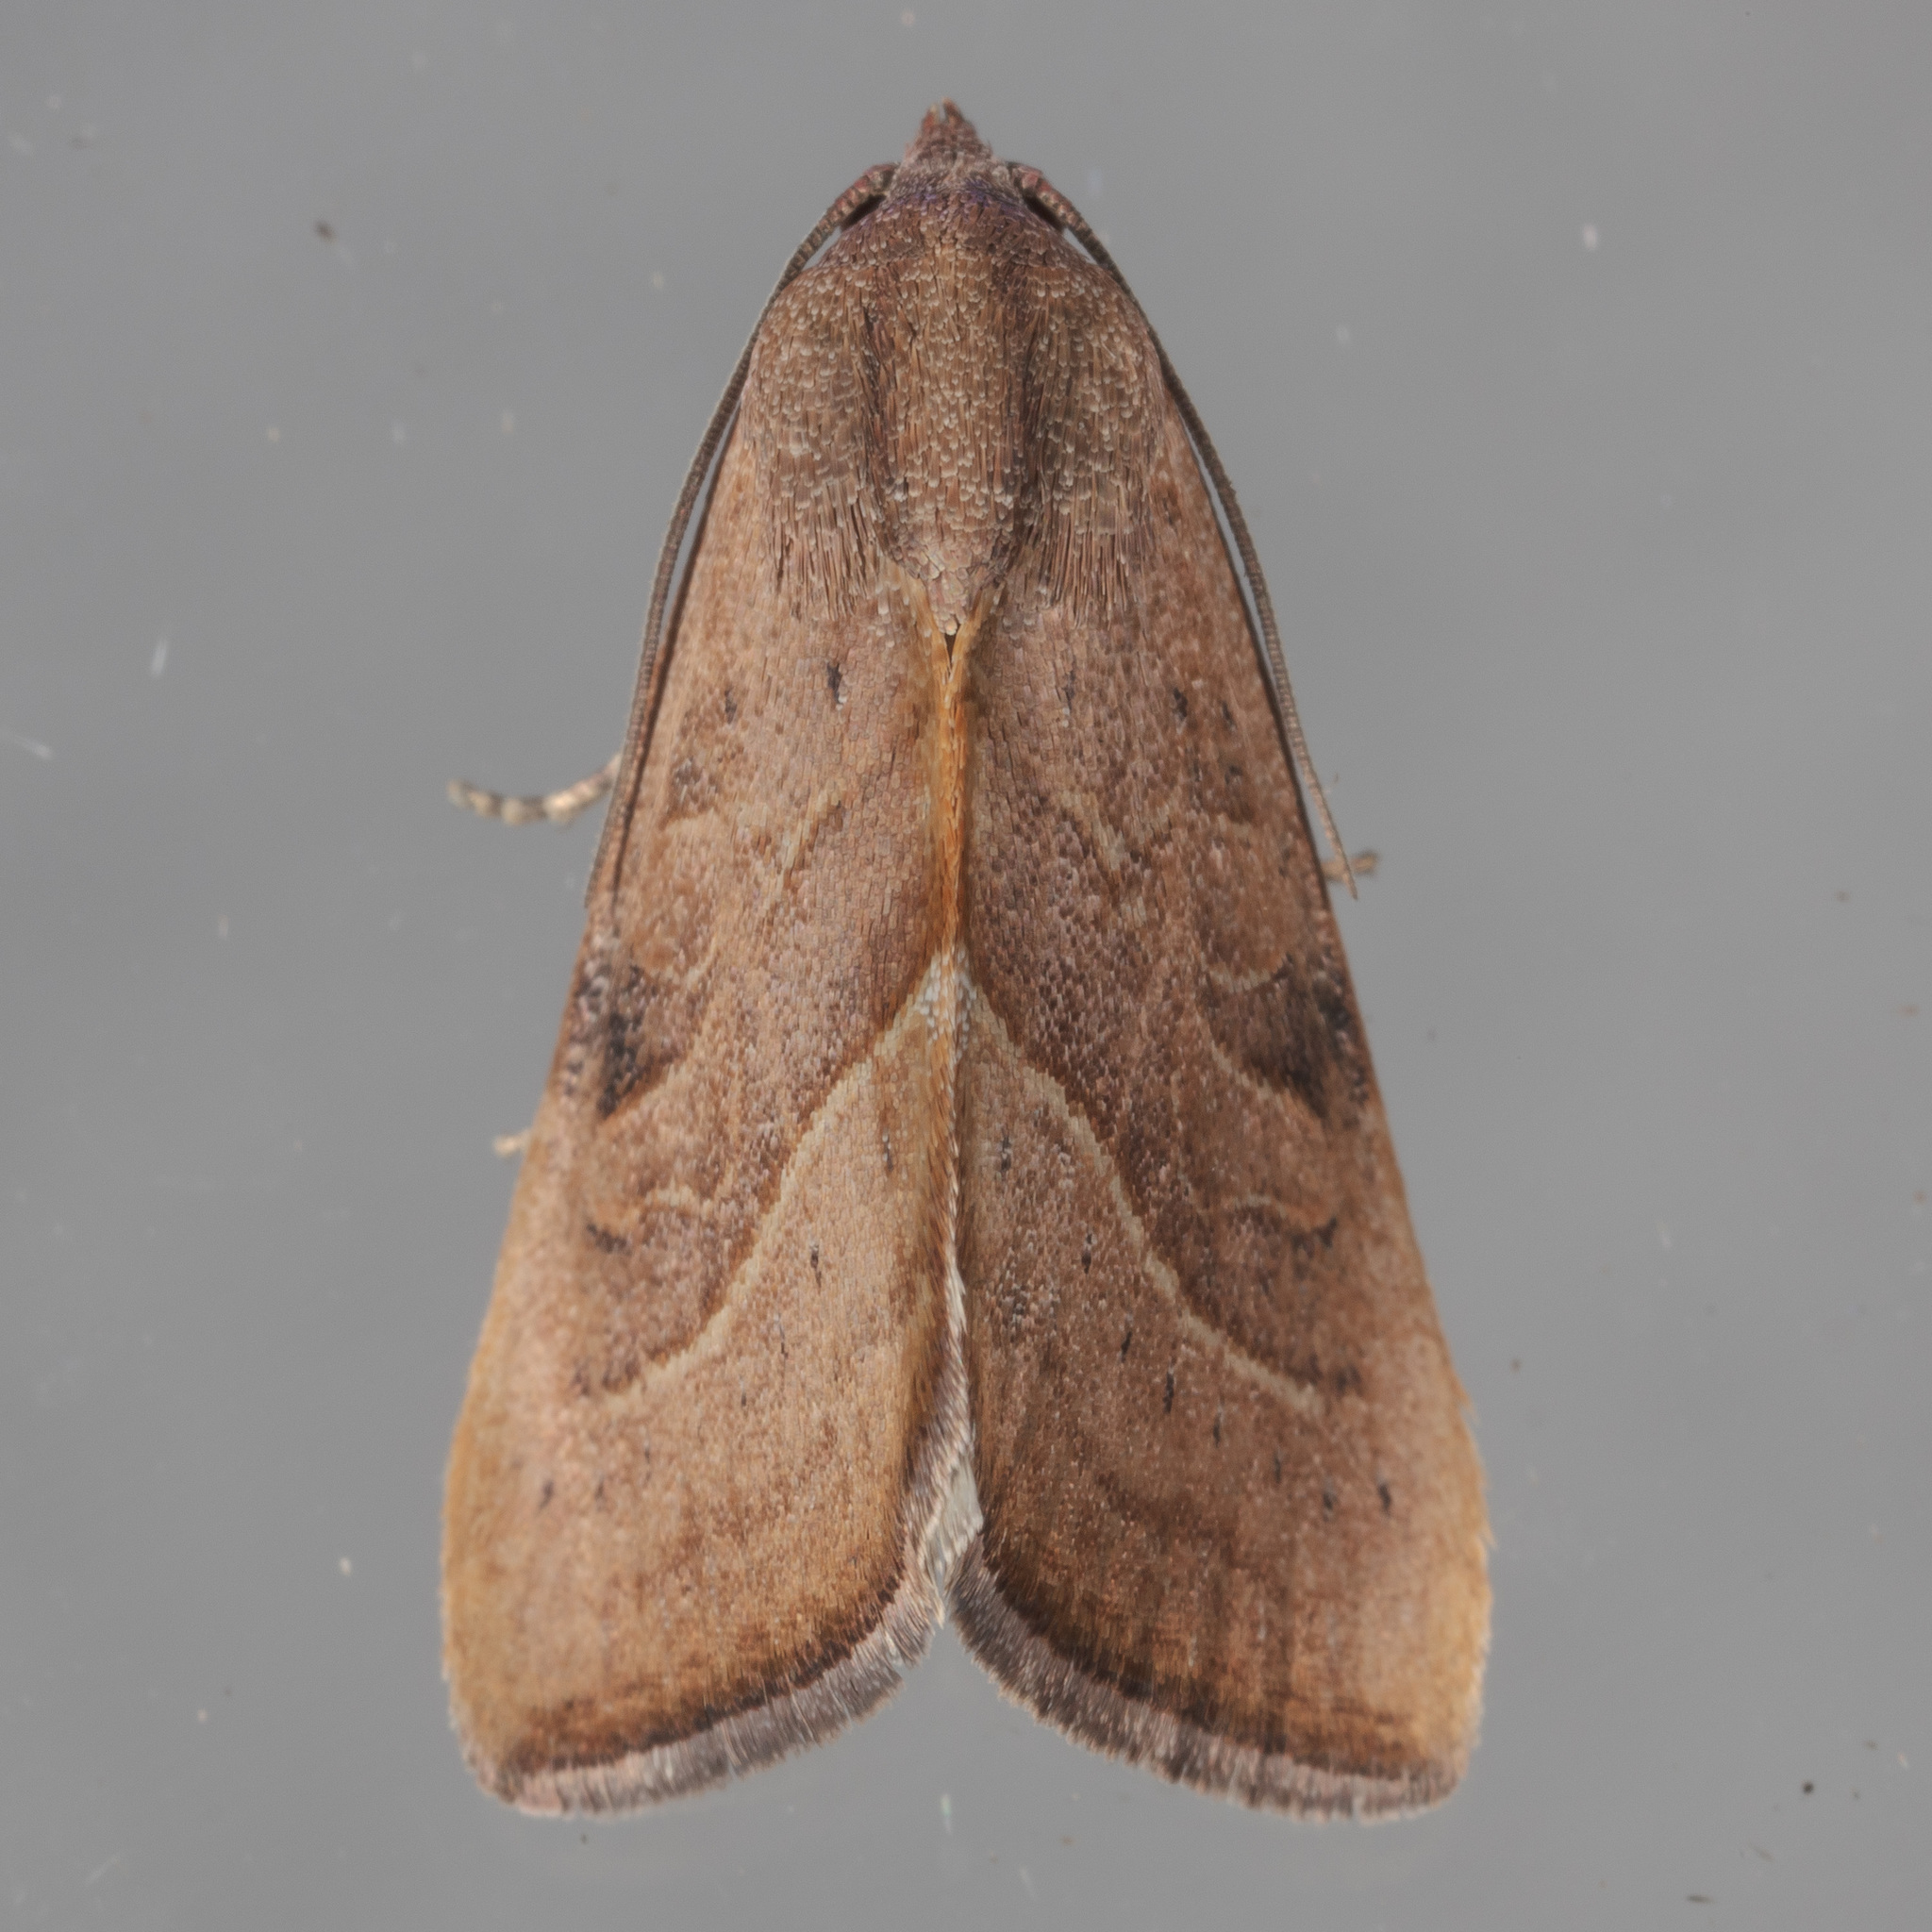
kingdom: Animalia
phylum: Arthropoda
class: Insecta
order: Lepidoptera
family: Noctuidae
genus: Galgula
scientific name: Galgula partita
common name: Wedgeling
